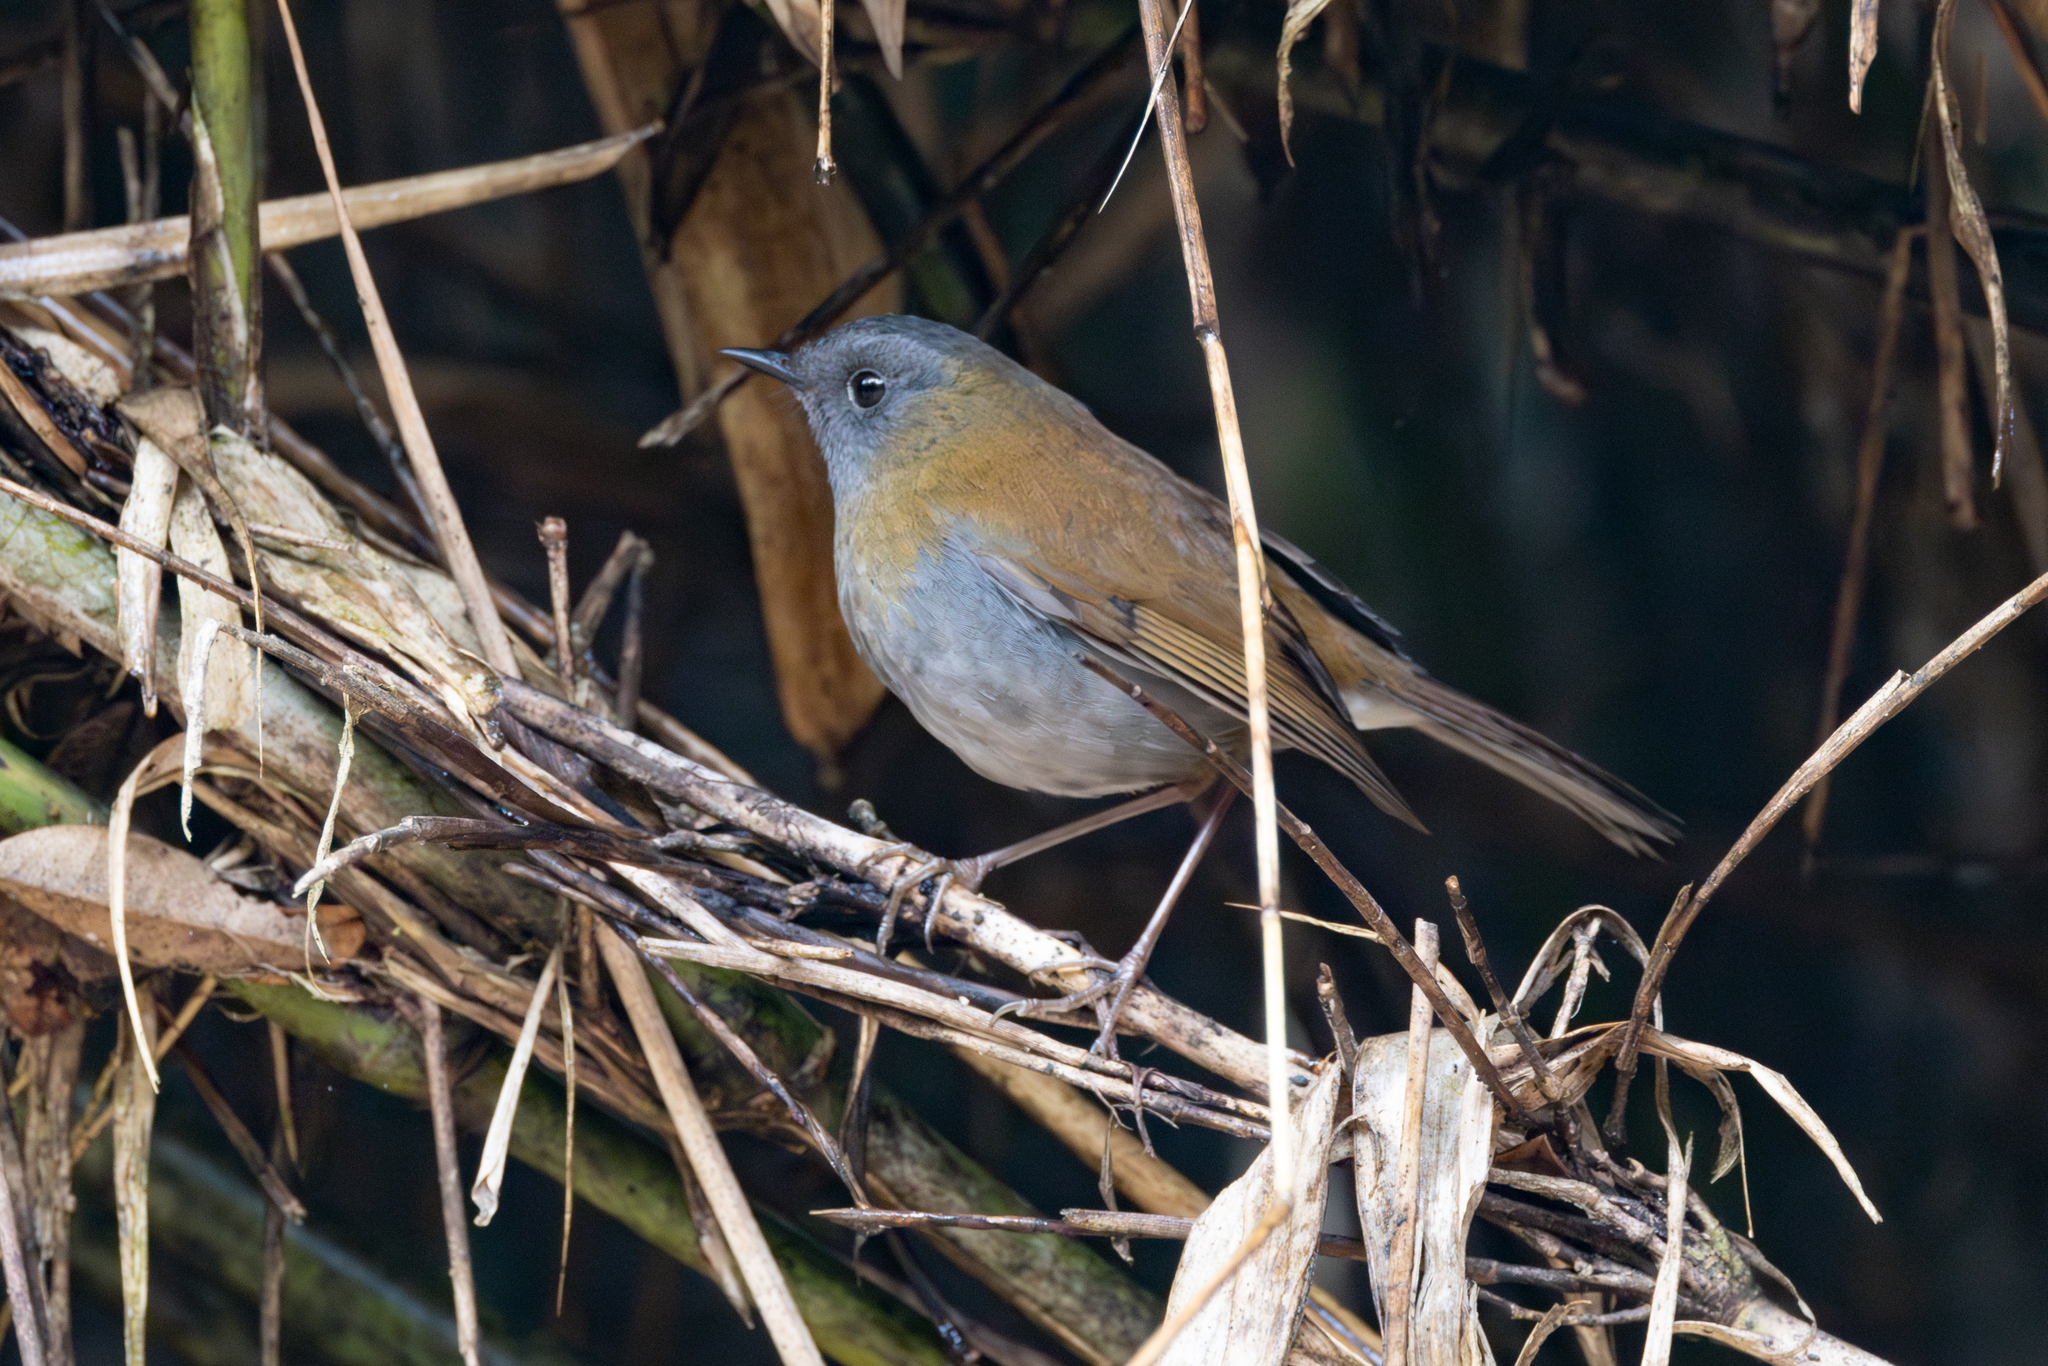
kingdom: Animalia
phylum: Chordata
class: Aves
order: Passeriformes
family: Turdidae
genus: Catharus
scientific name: Catharus gracilirostris
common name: Black-billed nightingale-thrush
